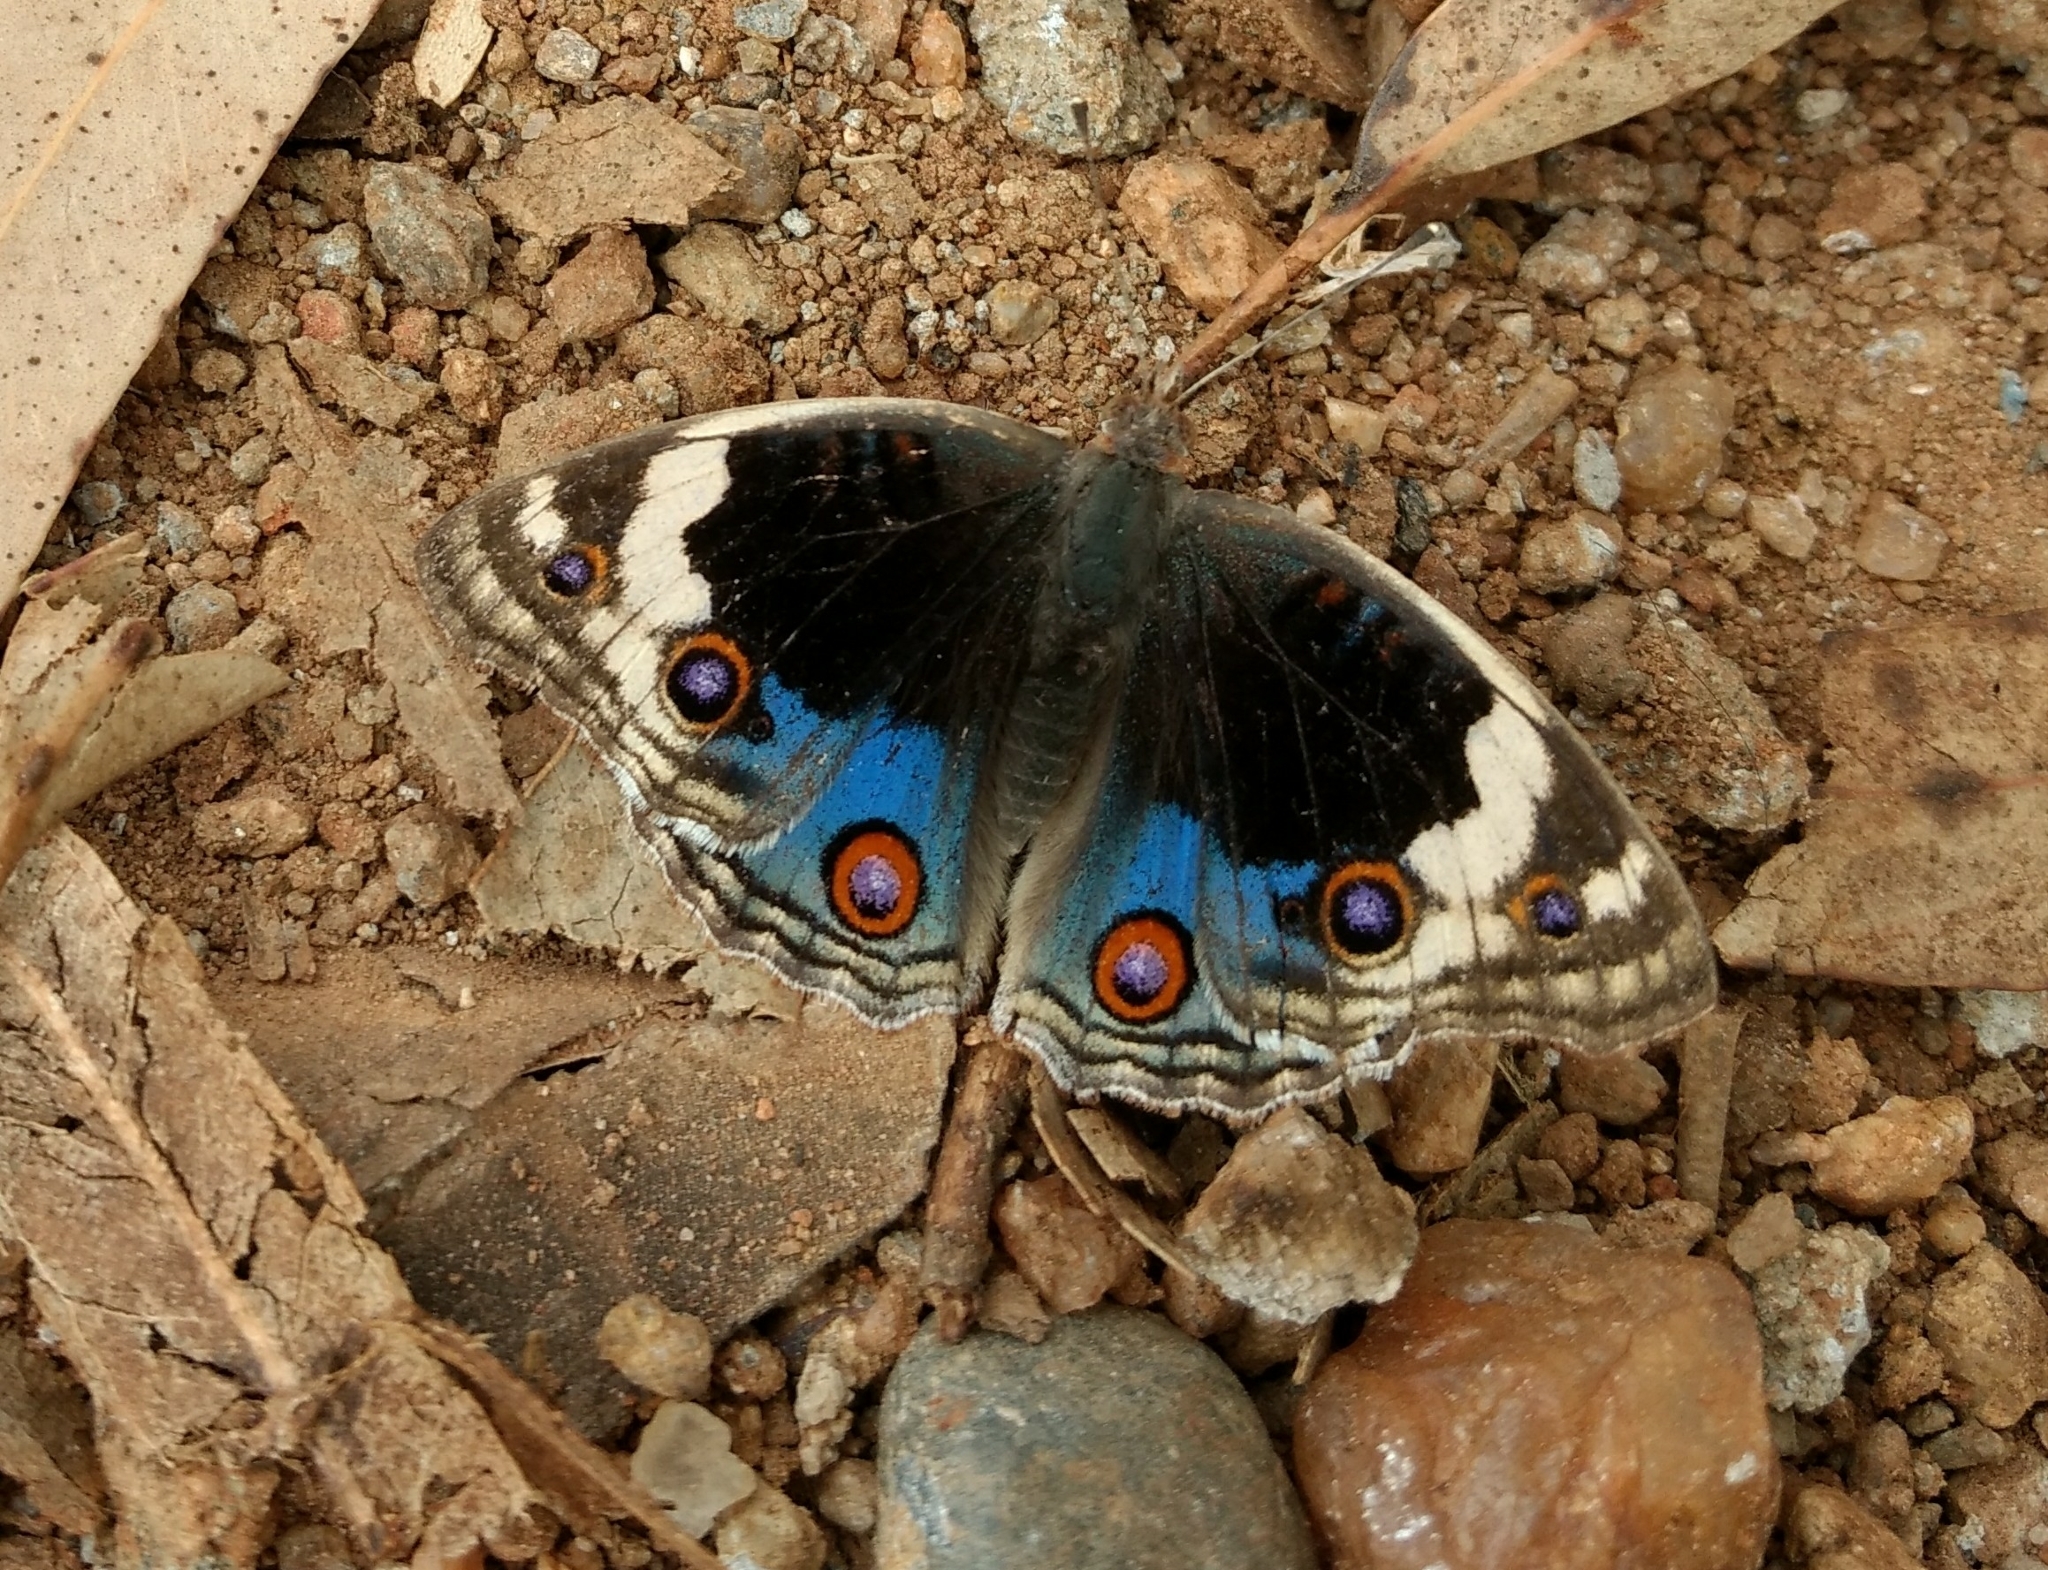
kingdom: Animalia
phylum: Arthropoda
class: Insecta
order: Lepidoptera
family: Nymphalidae
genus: Junonia
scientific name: Junonia orithya
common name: Blue pansy
